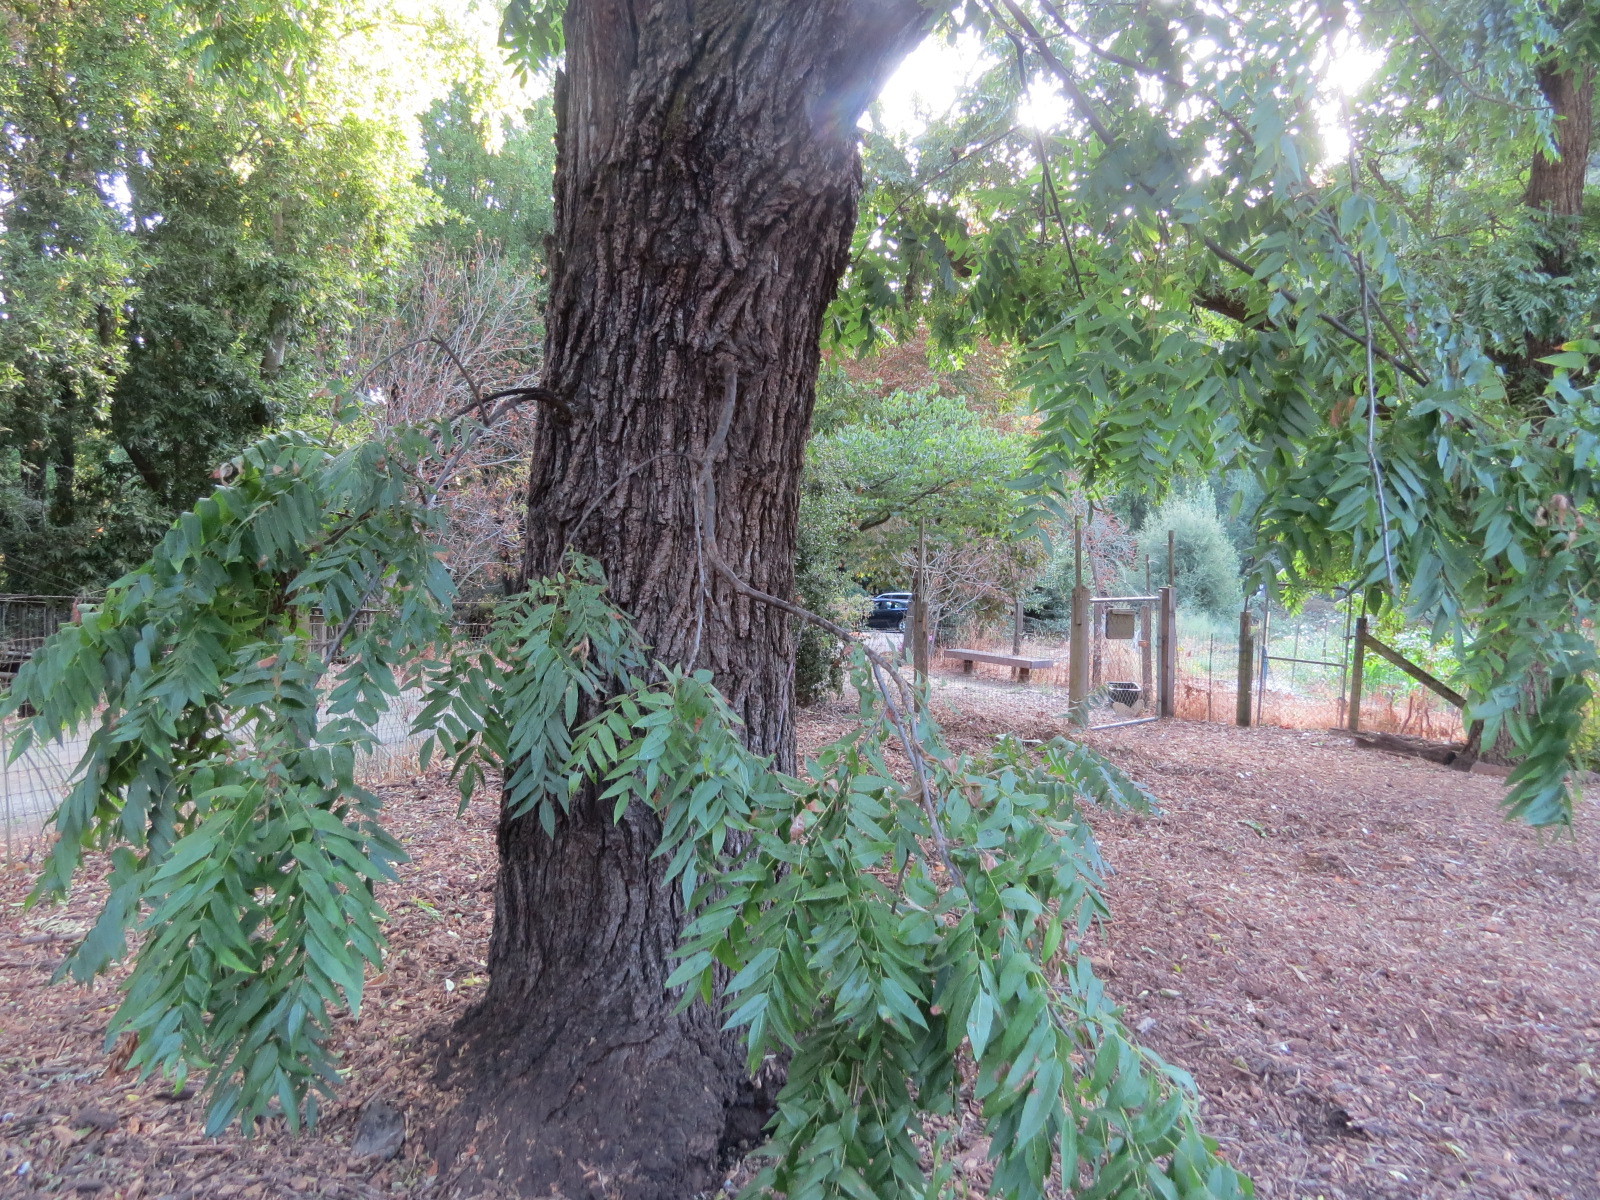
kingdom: Animalia
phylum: Arthropoda
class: Arachnida
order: Trombidiformes
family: Eriophyidae
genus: Aceria
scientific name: Aceria brachytarsus
